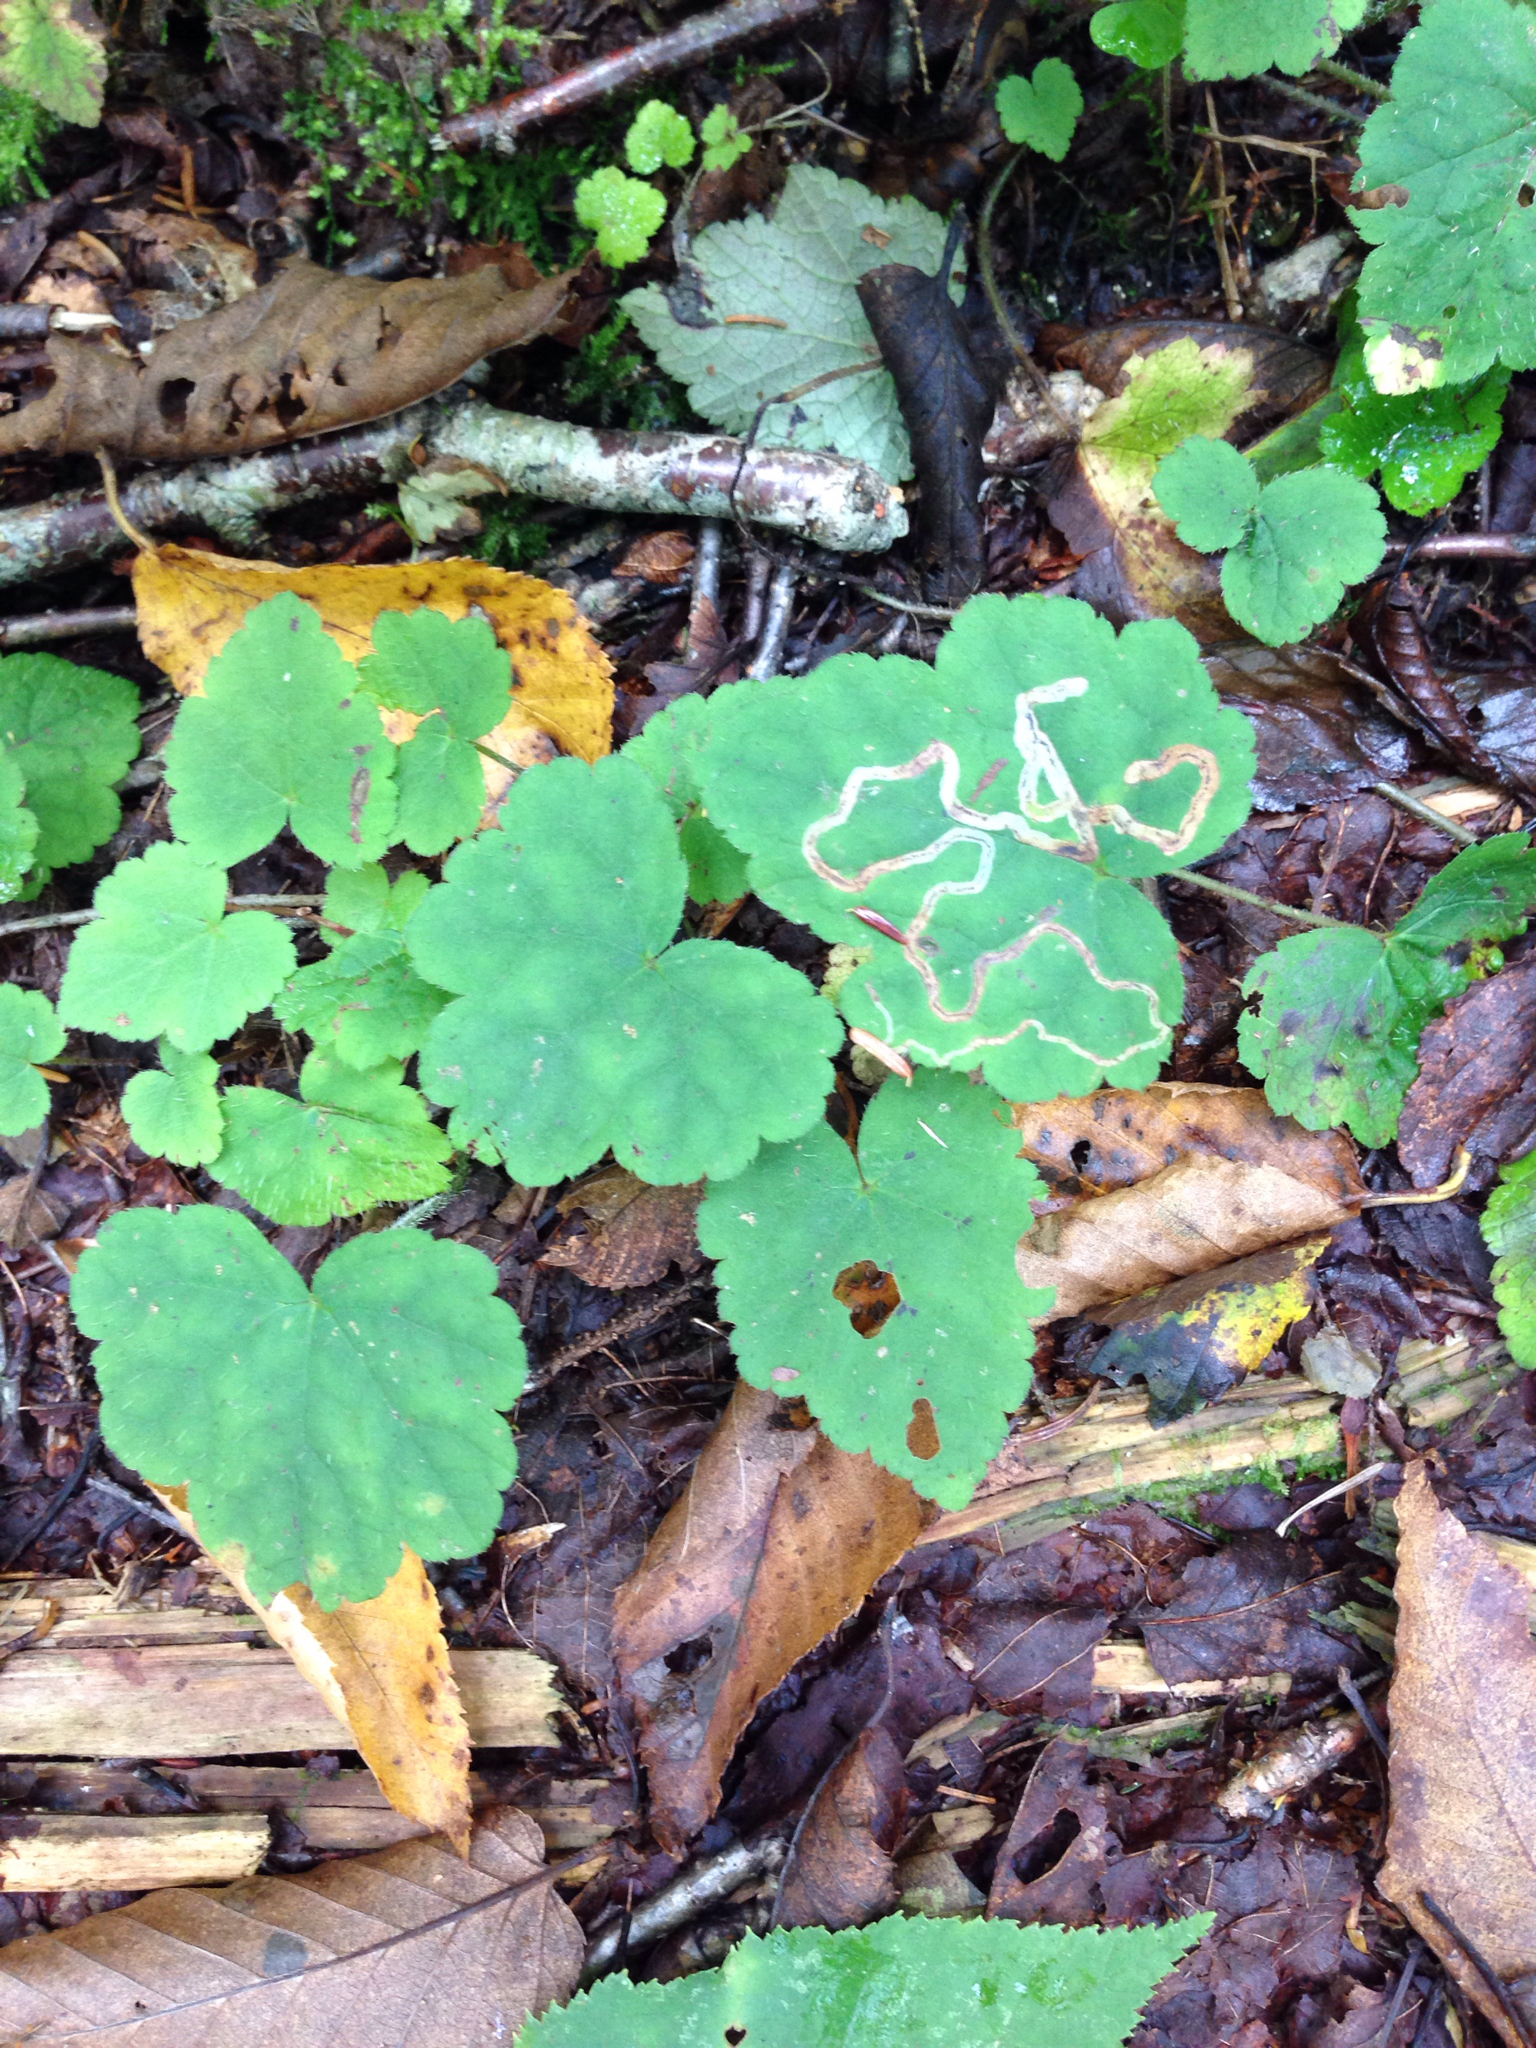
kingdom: Plantae
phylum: Tracheophyta
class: Magnoliopsida
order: Saxifragales
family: Saxifragaceae
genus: Tiarella
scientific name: Tiarella stolonifera
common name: Stoloniferous foamflower
